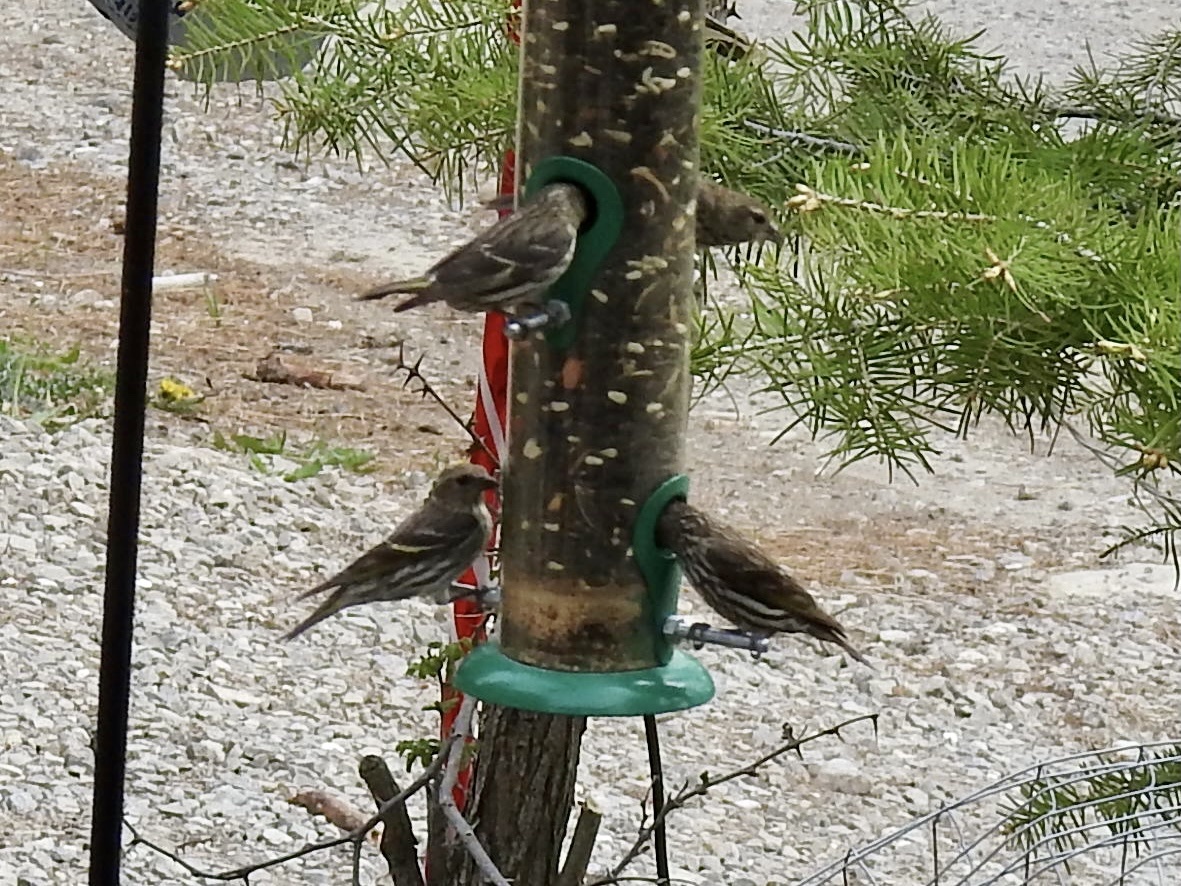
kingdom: Animalia
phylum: Chordata
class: Aves
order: Passeriformes
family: Fringillidae
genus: Spinus
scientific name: Spinus pinus
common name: Pine siskin
